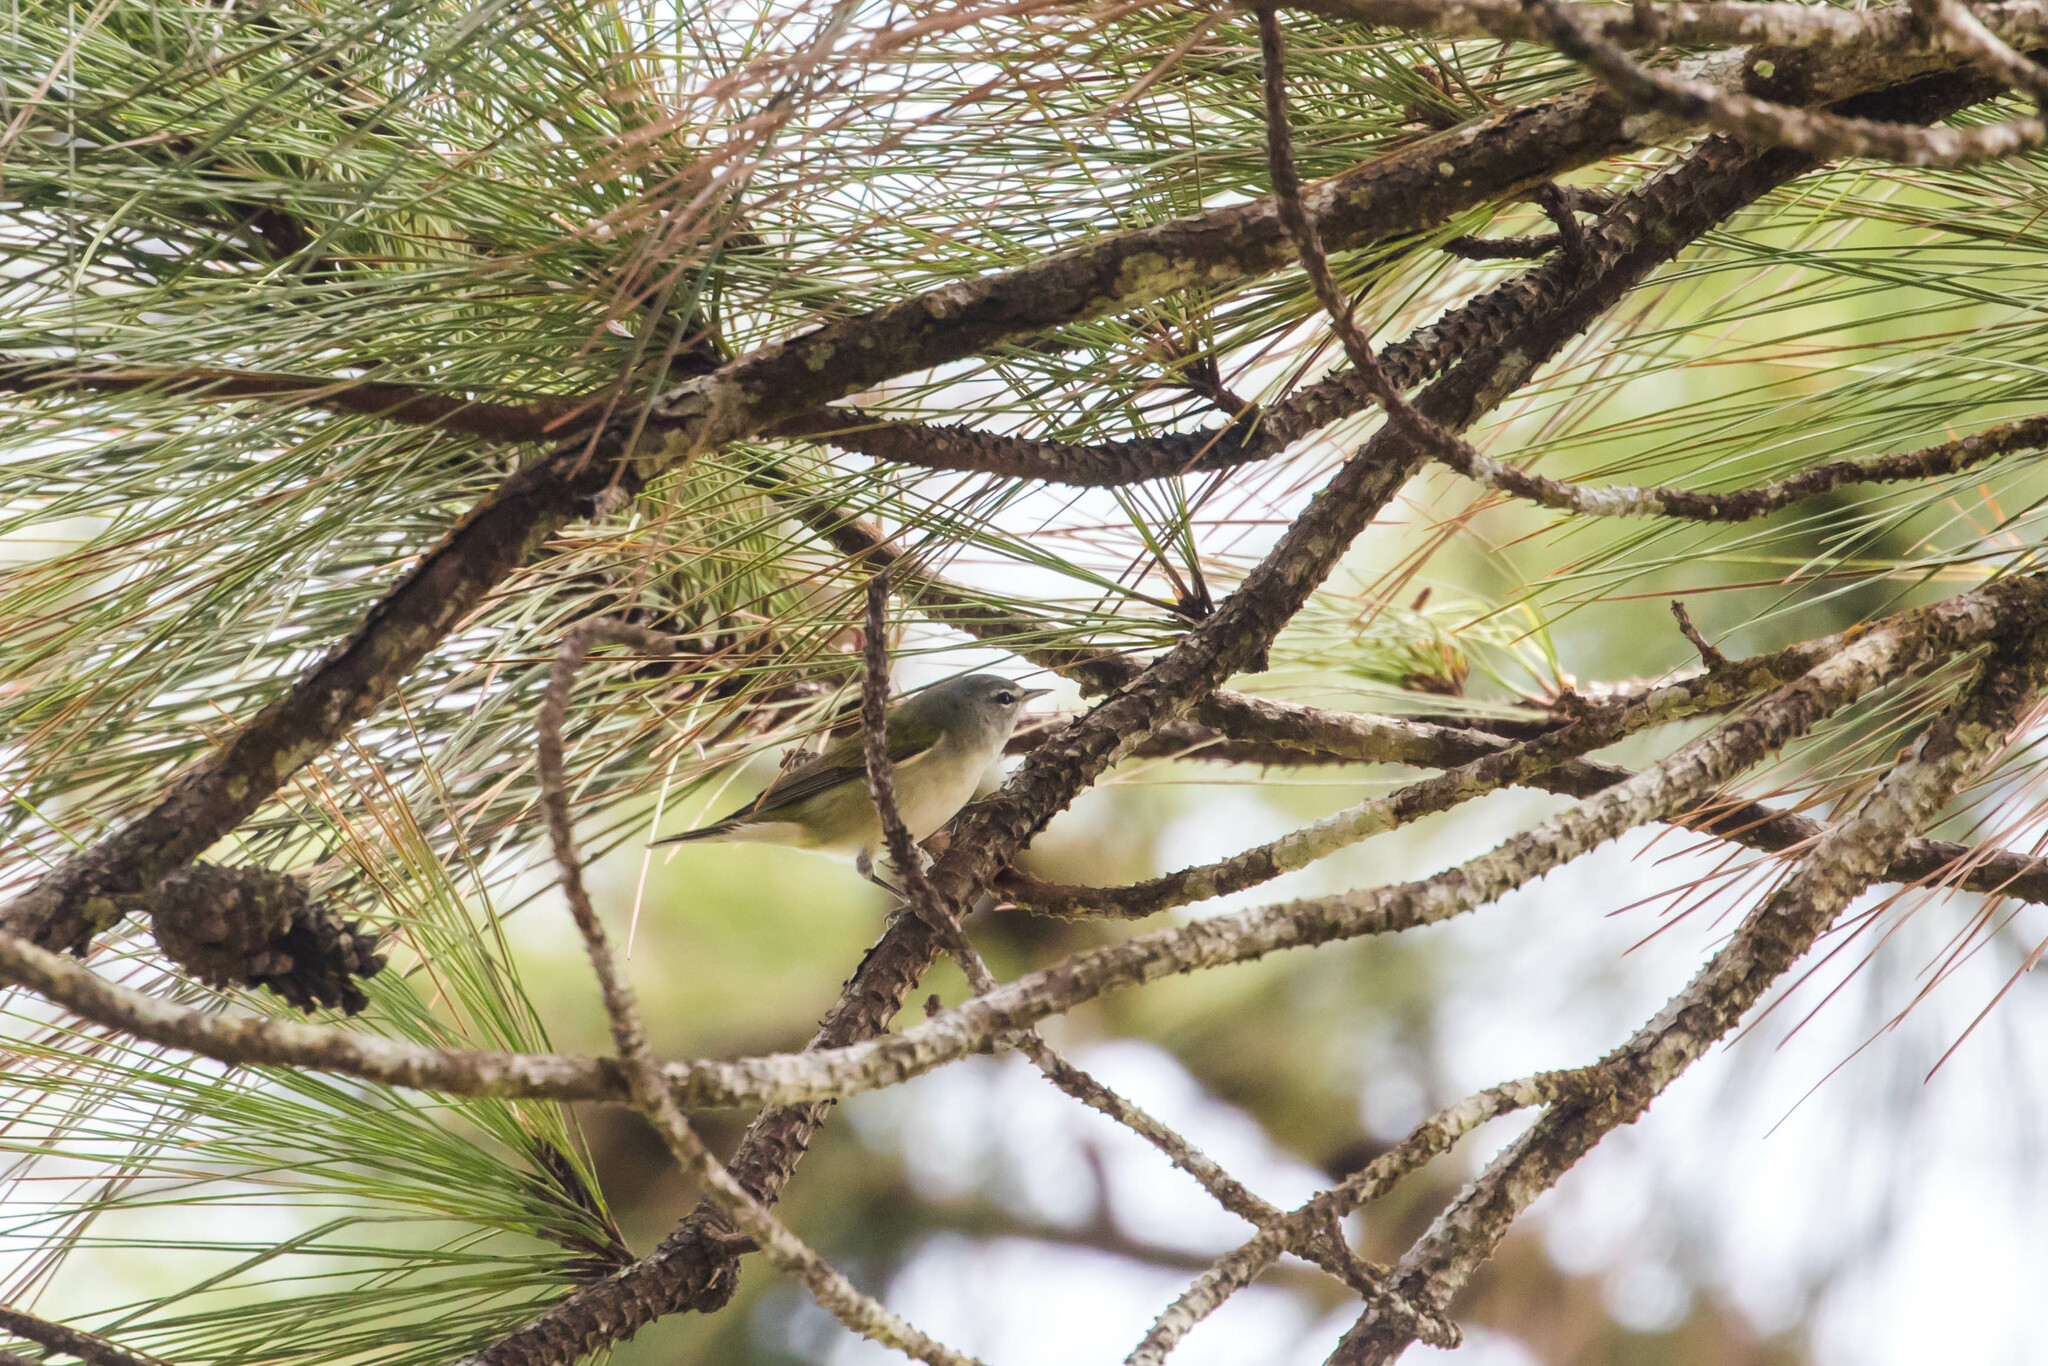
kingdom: Animalia
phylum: Chordata
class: Aves
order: Passeriformes
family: Parulidae
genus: Leiothlypis
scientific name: Leiothlypis peregrina
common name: Tennessee warbler
